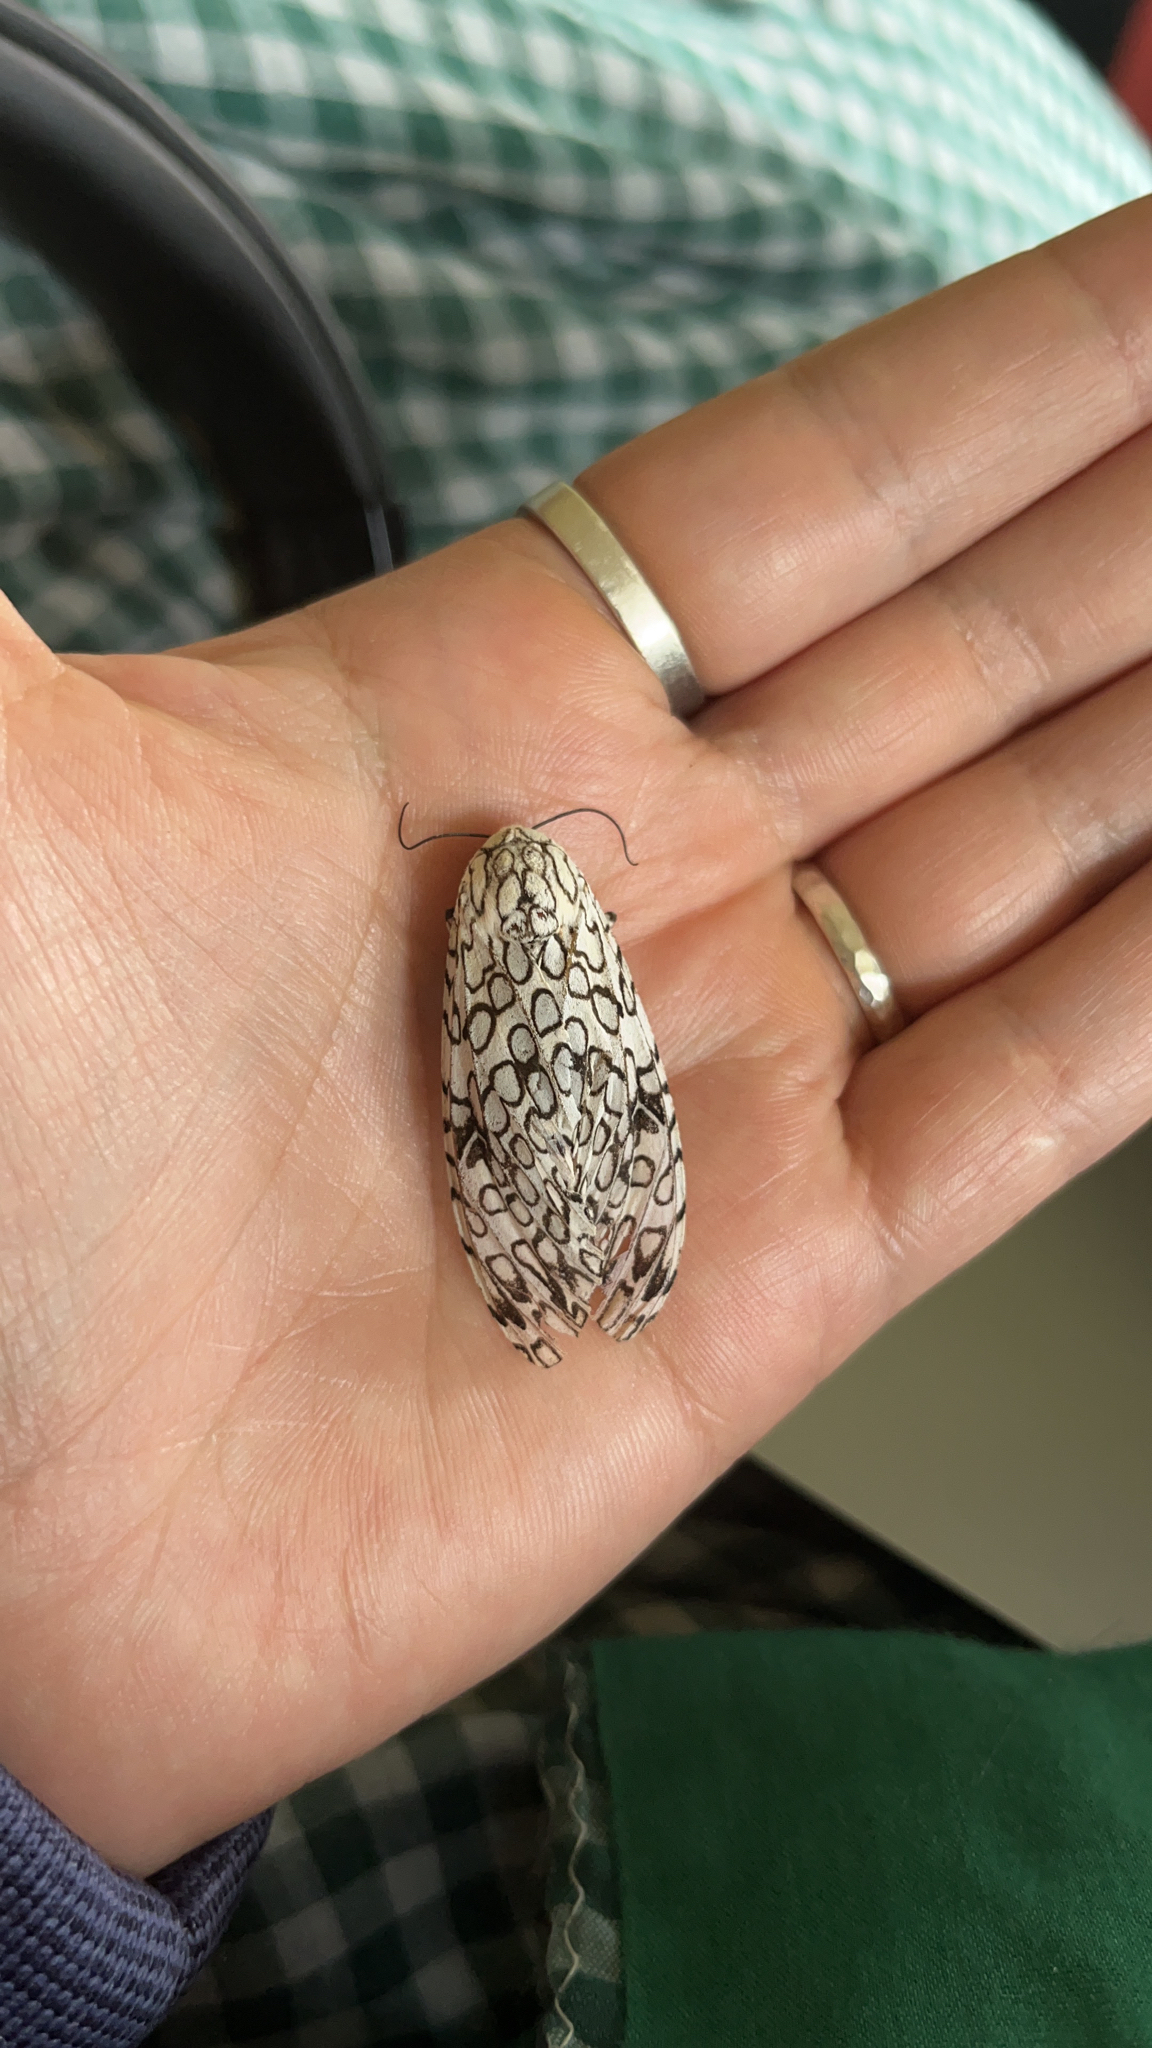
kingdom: Animalia
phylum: Arthropoda
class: Insecta
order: Lepidoptera
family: Erebidae
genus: Hypercompe
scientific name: Hypercompe scribonia
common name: Giant leopard moth
